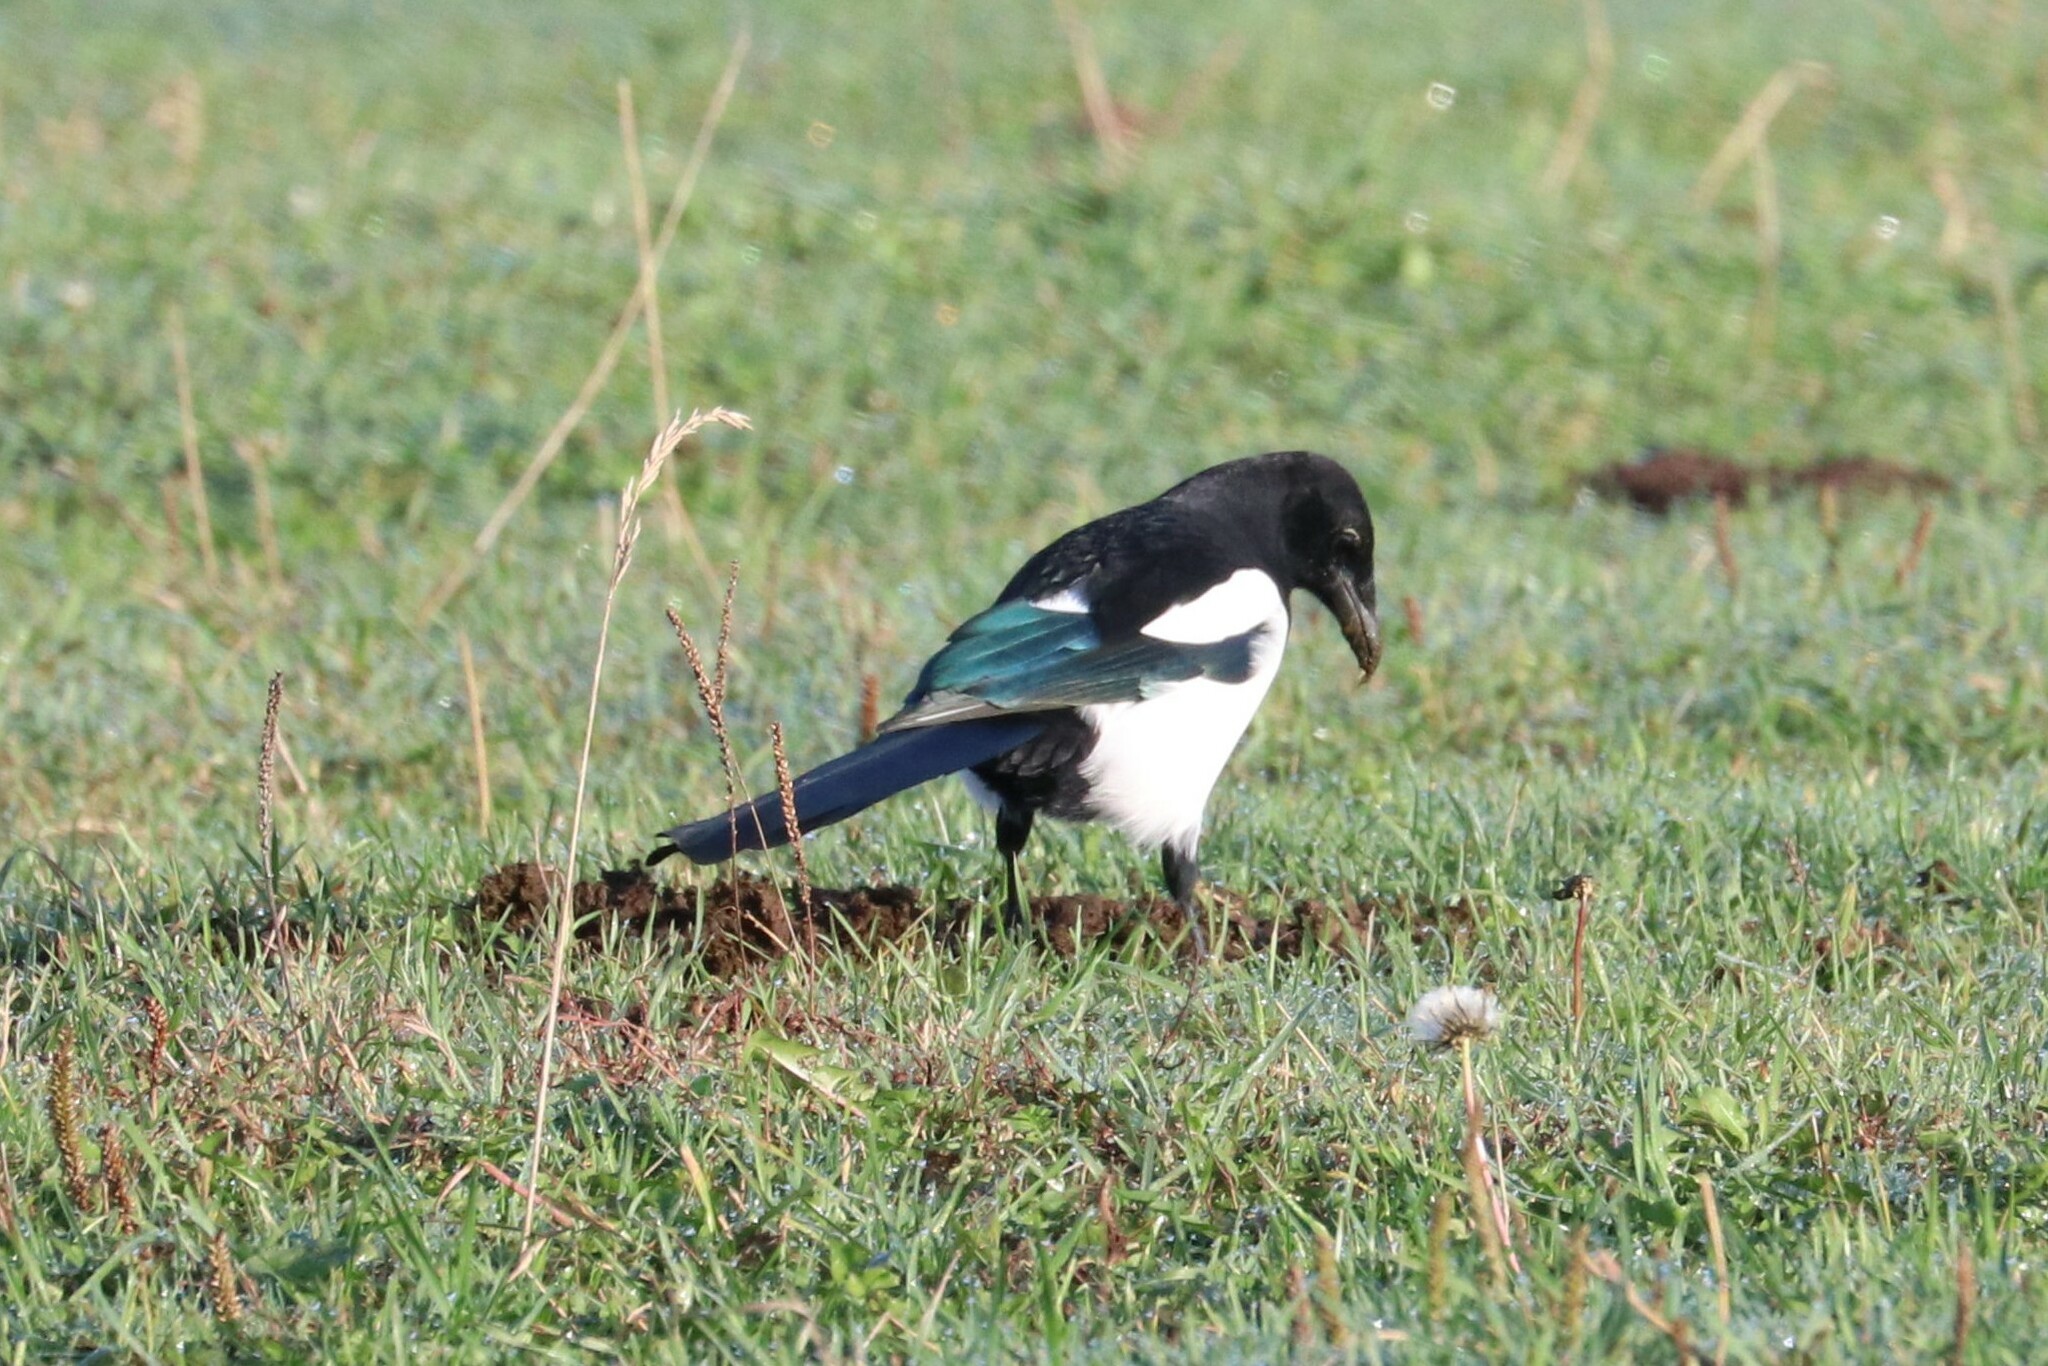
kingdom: Animalia
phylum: Chordata
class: Aves
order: Passeriformes
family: Corvidae
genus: Pica
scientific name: Pica pica
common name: Eurasian magpie
